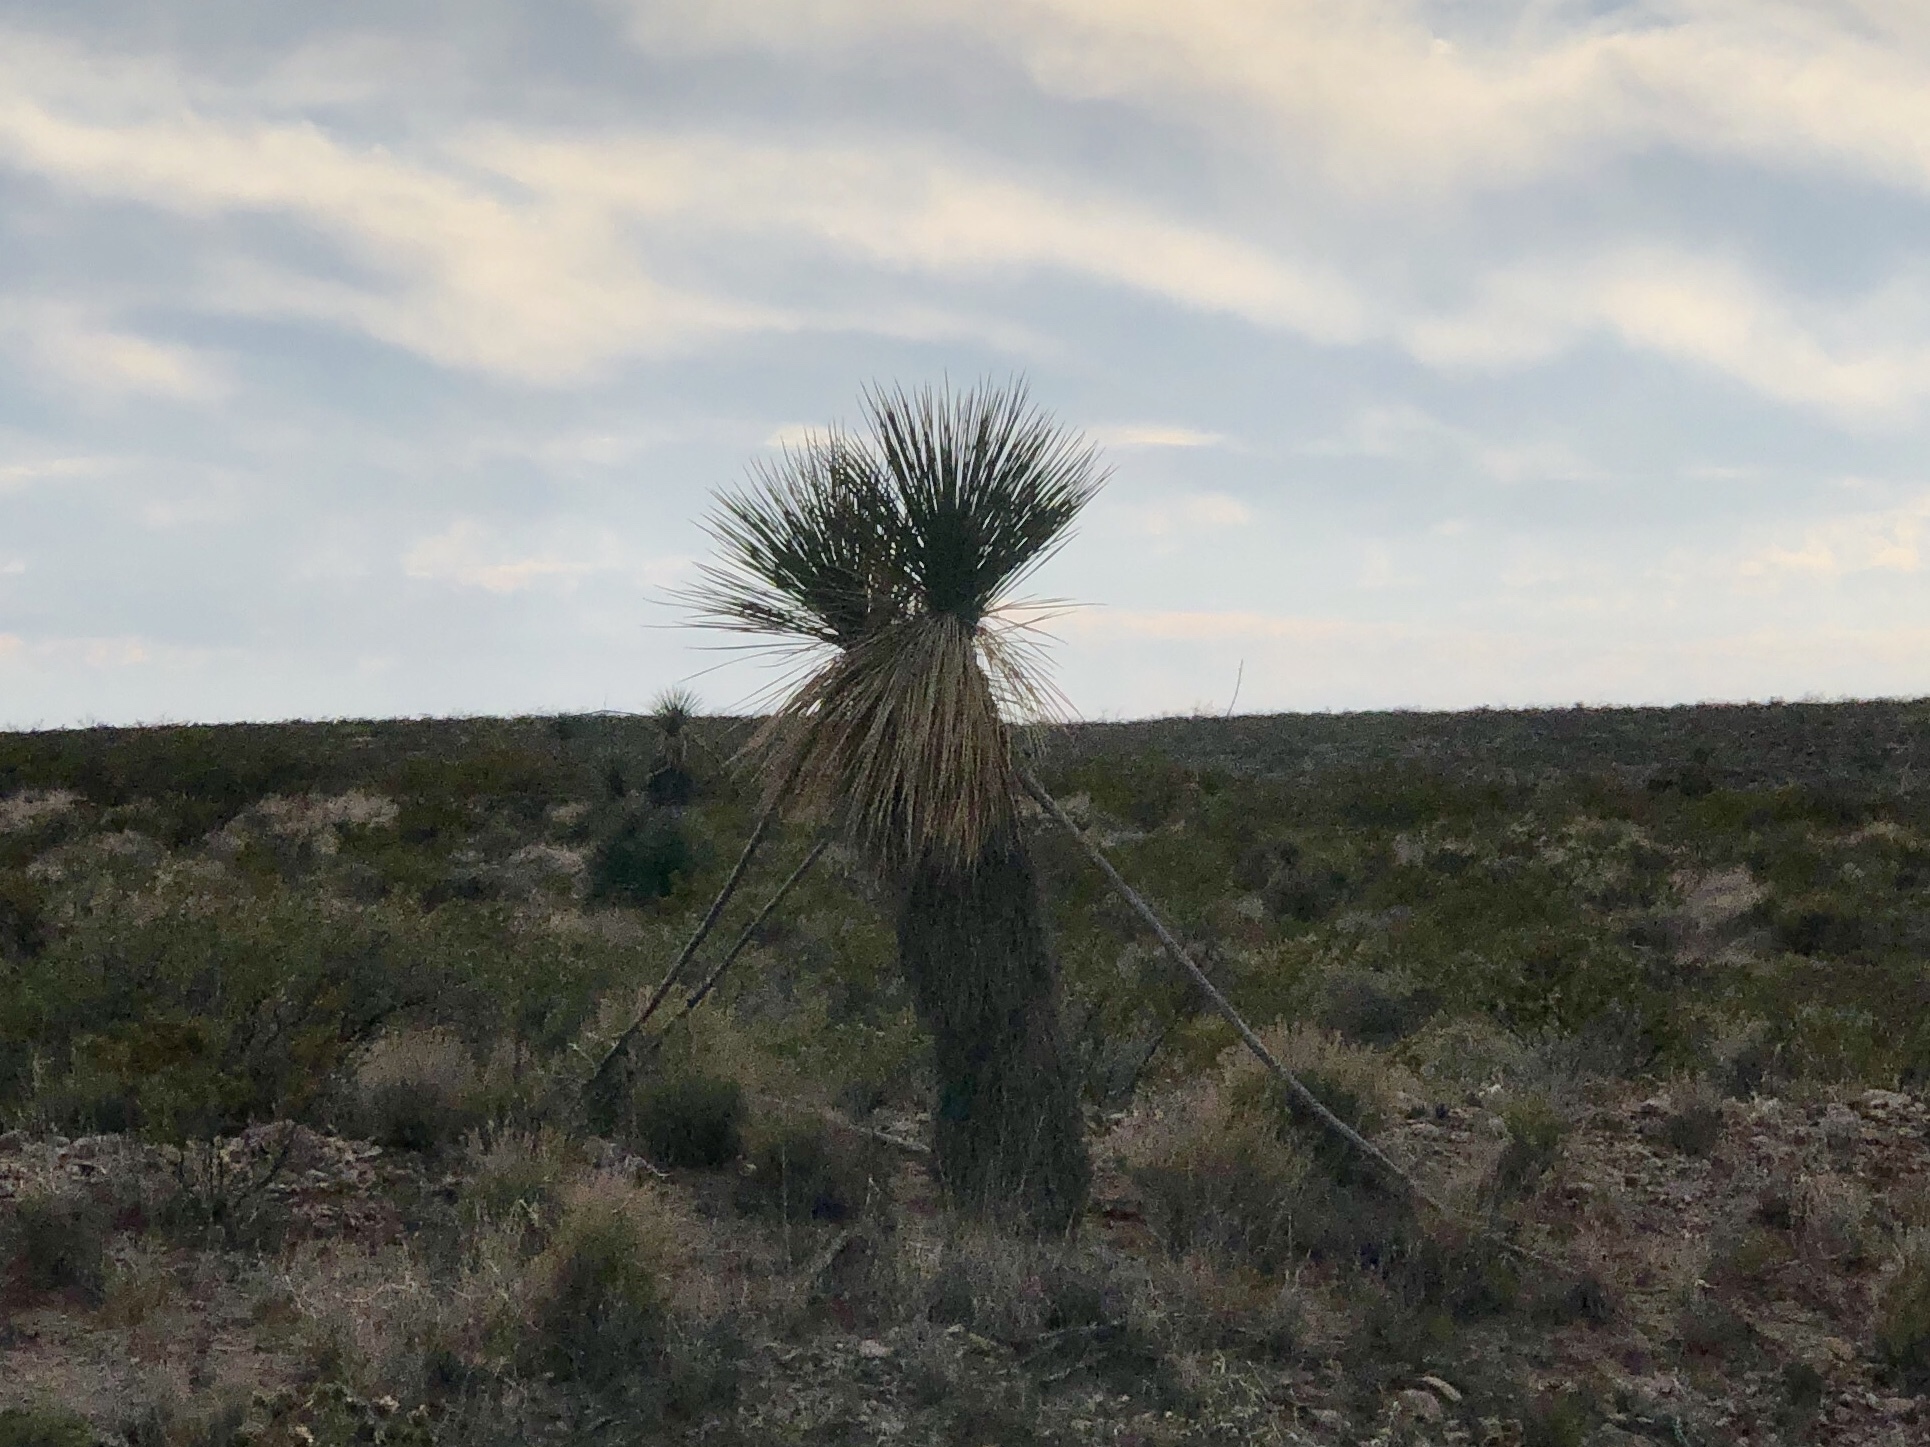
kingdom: Plantae
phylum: Tracheophyta
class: Liliopsida
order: Asparagales
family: Asparagaceae
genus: Yucca
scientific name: Yucca elata
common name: Palmella
